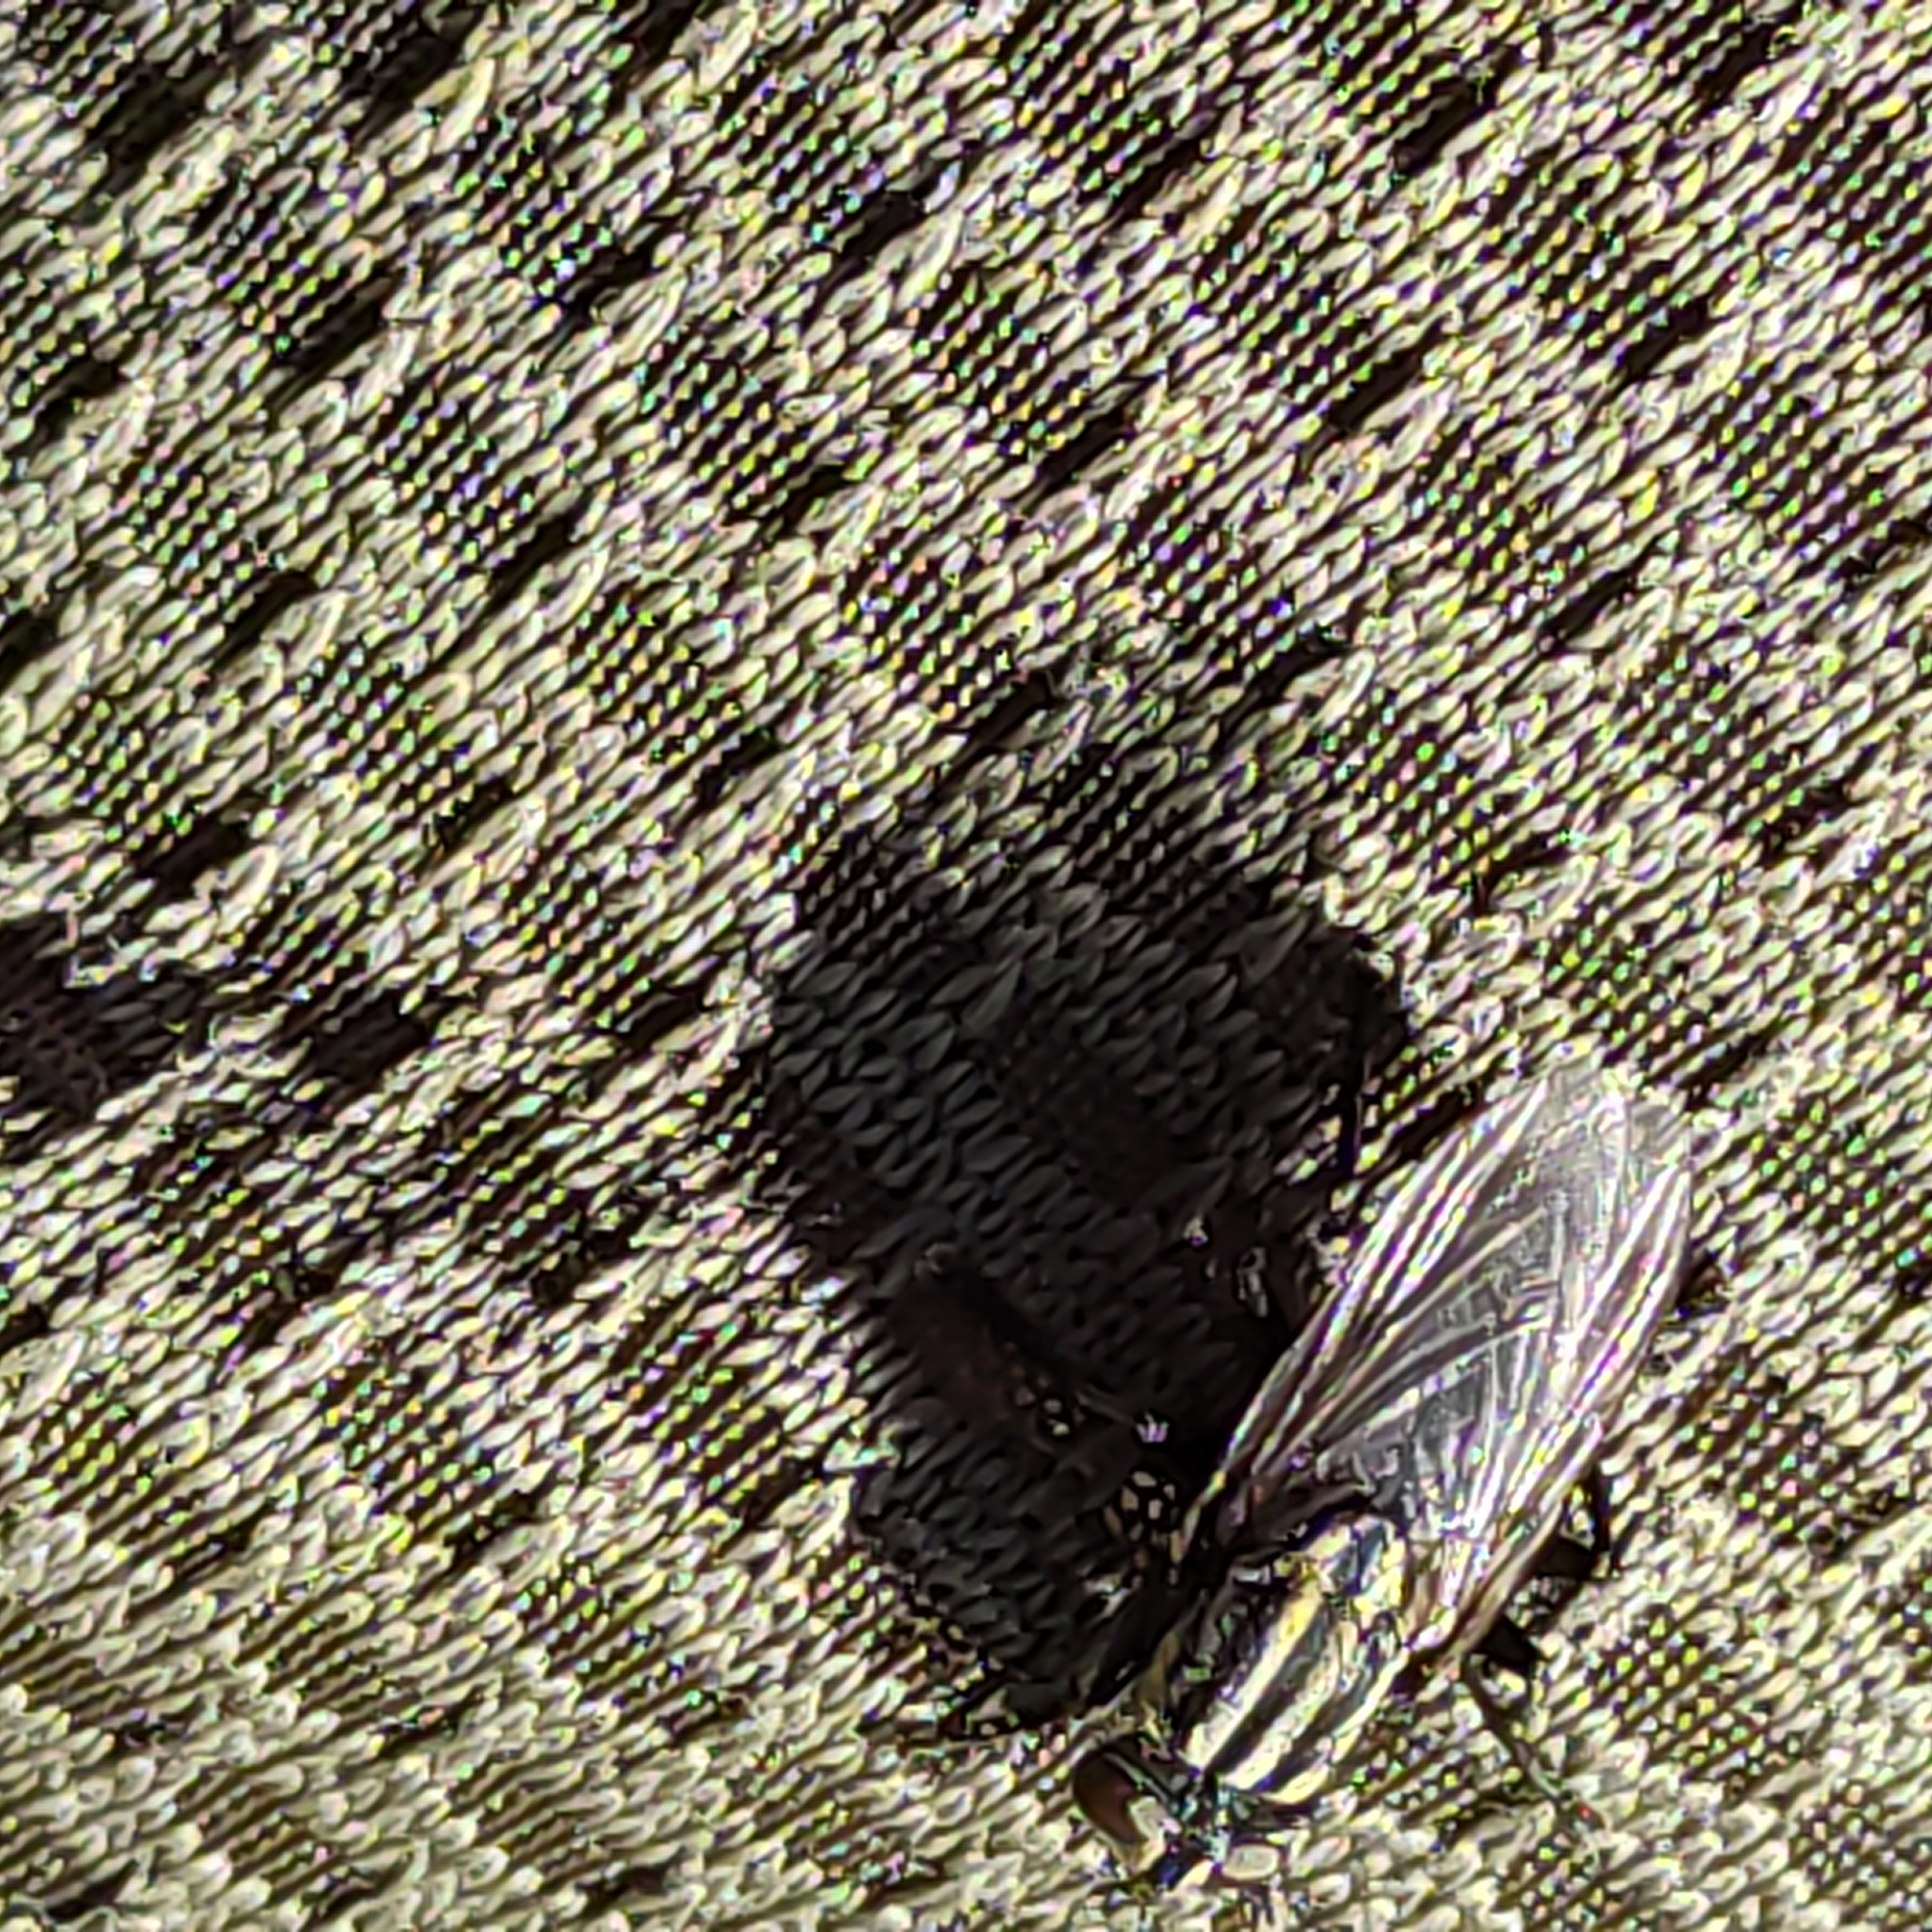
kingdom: Animalia
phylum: Arthropoda
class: Insecta
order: Diptera
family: Sarcophagidae
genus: Oxysarcodexia
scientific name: Oxysarcodexia varia
